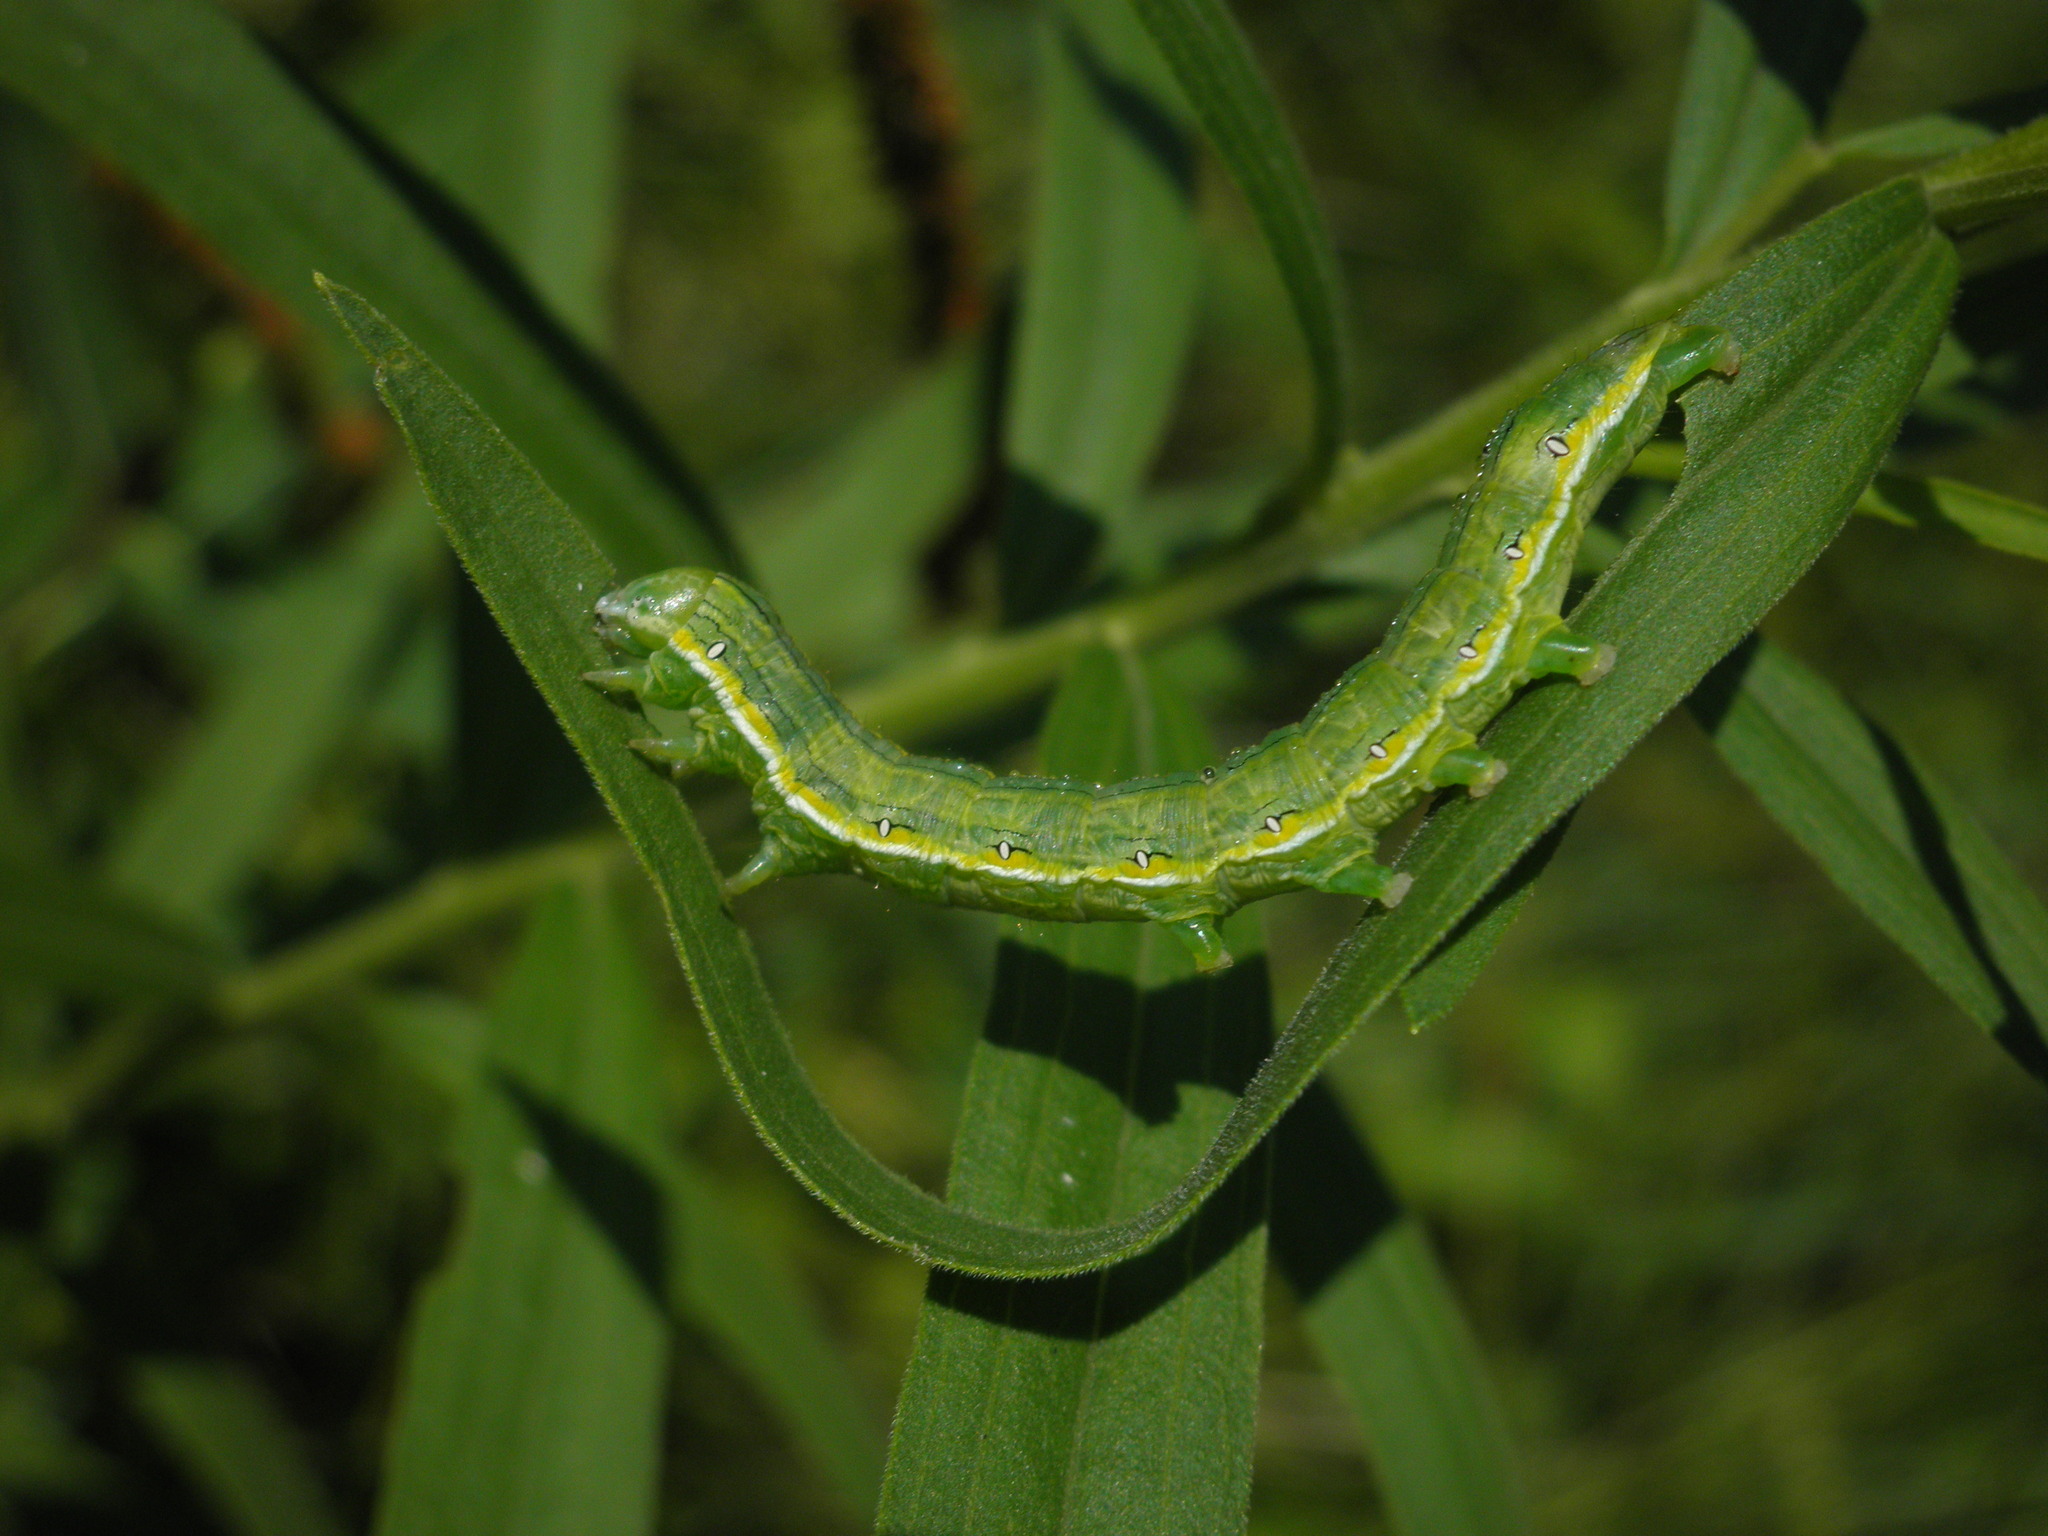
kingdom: Animalia
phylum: Arthropoda
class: Insecta
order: Lepidoptera
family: Noctuidae
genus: Cucullia
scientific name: Cucullia asteroides
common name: Asteroid moth
